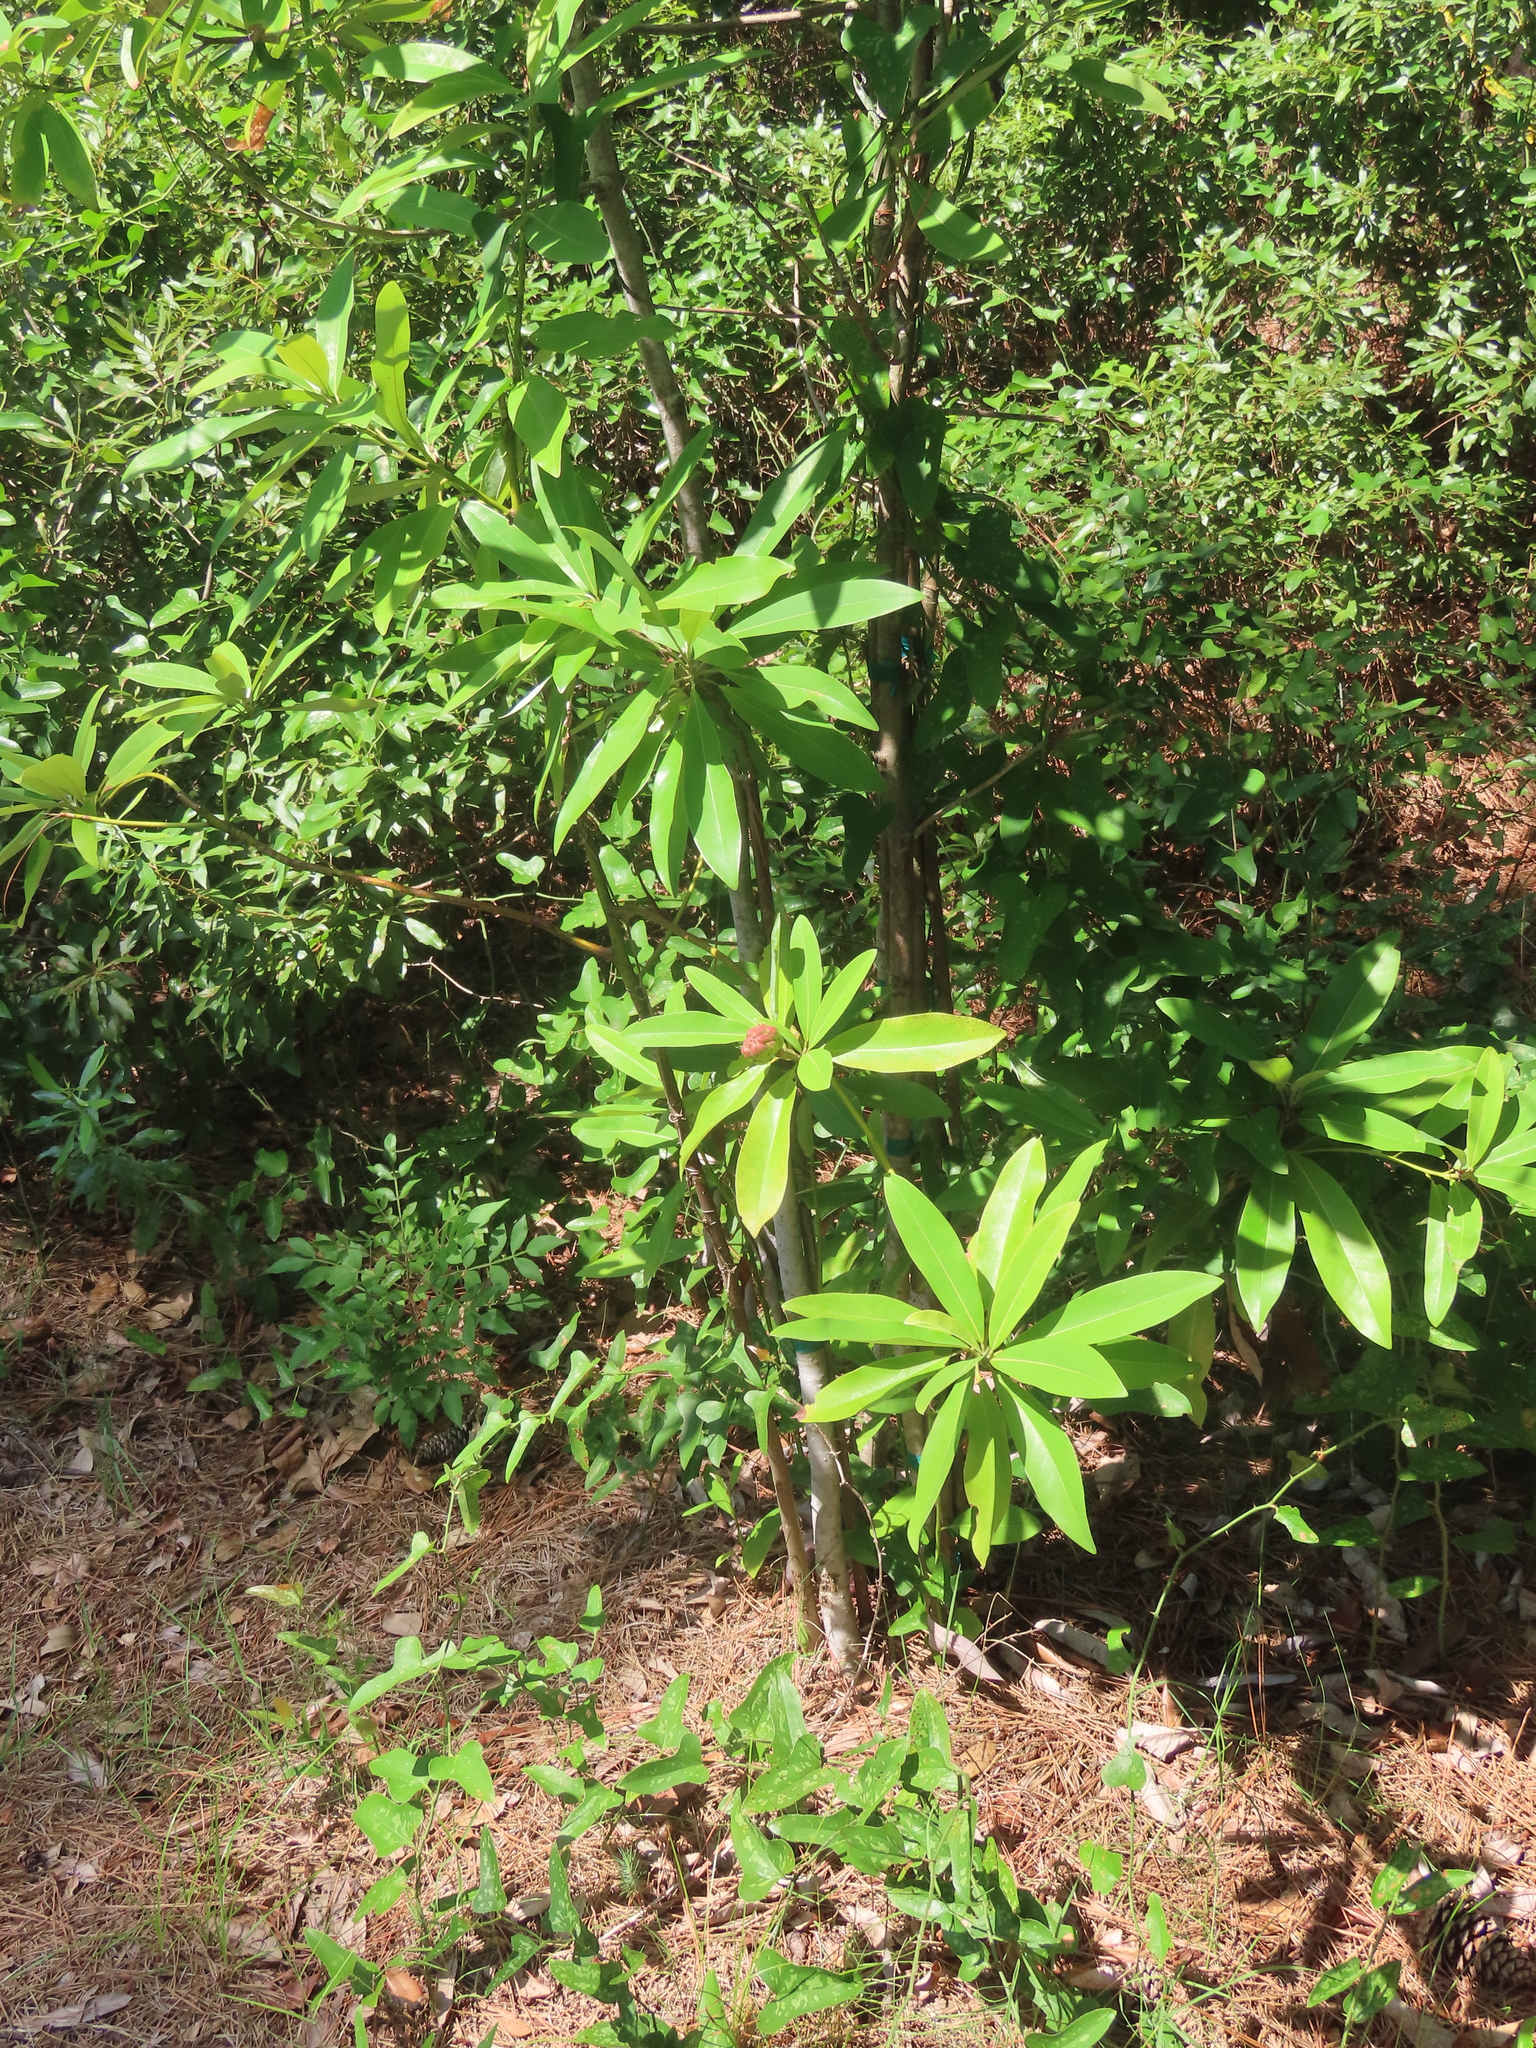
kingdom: Plantae
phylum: Tracheophyta
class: Magnoliopsida
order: Magnoliales
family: Magnoliaceae
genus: Magnolia
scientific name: Magnolia virginiana
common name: Swamp bay
